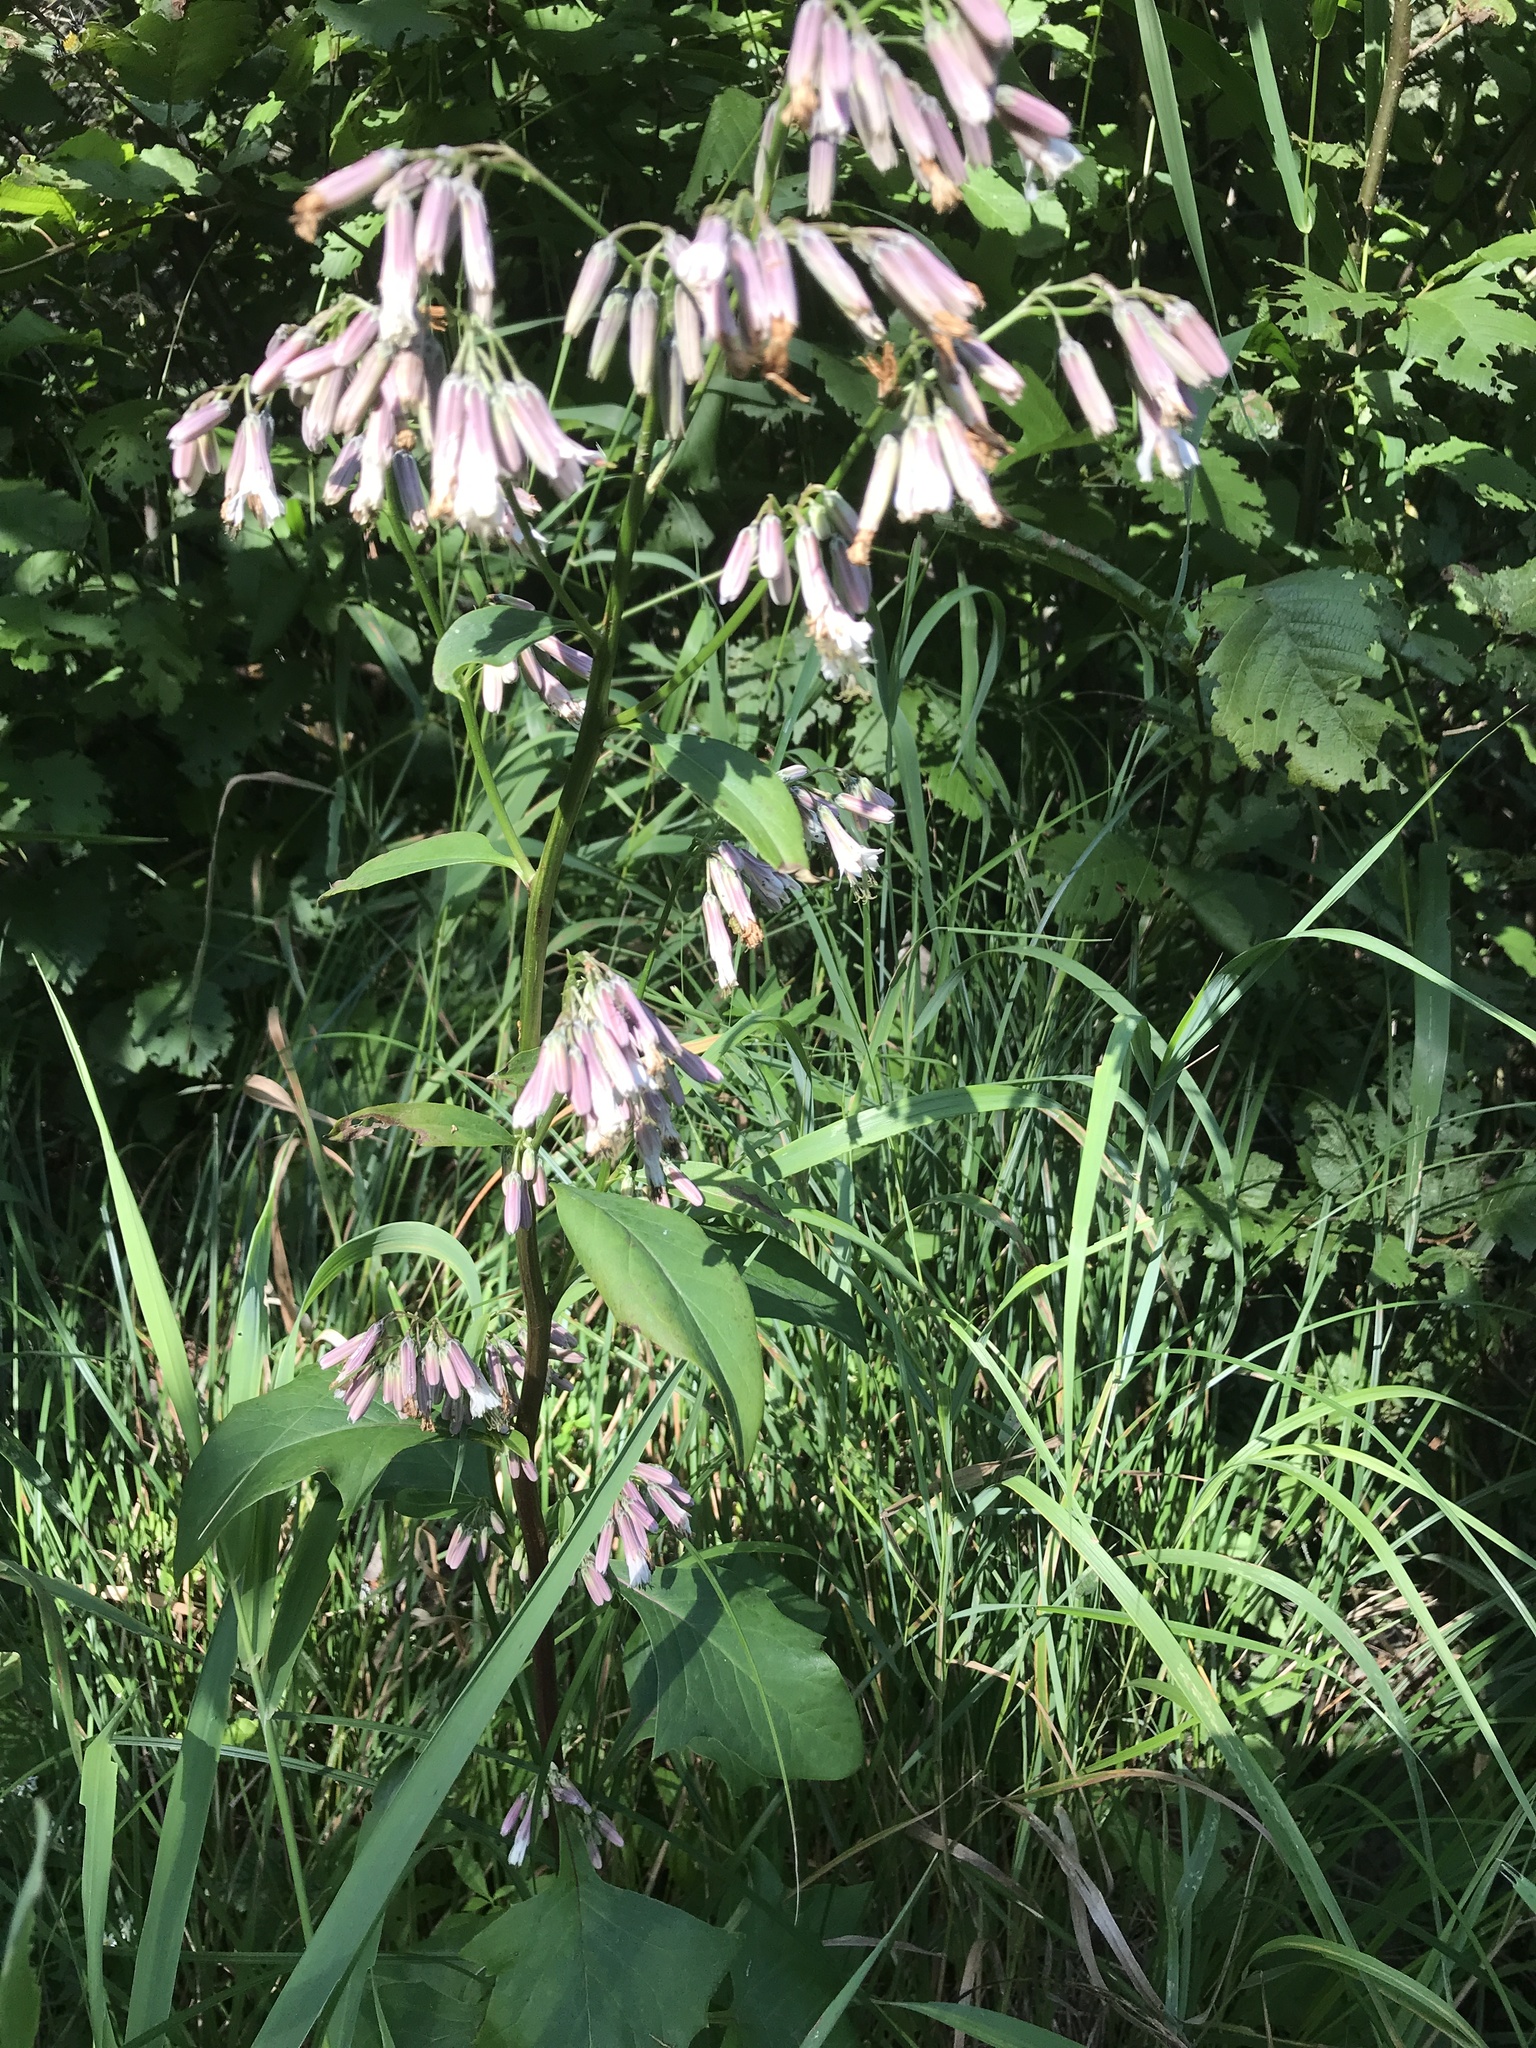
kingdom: Plantae
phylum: Tracheophyta
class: Magnoliopsida
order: Asterales
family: Asteraceae
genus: Nabalus
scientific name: Nabalus albus
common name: White rattlesnakeroot
